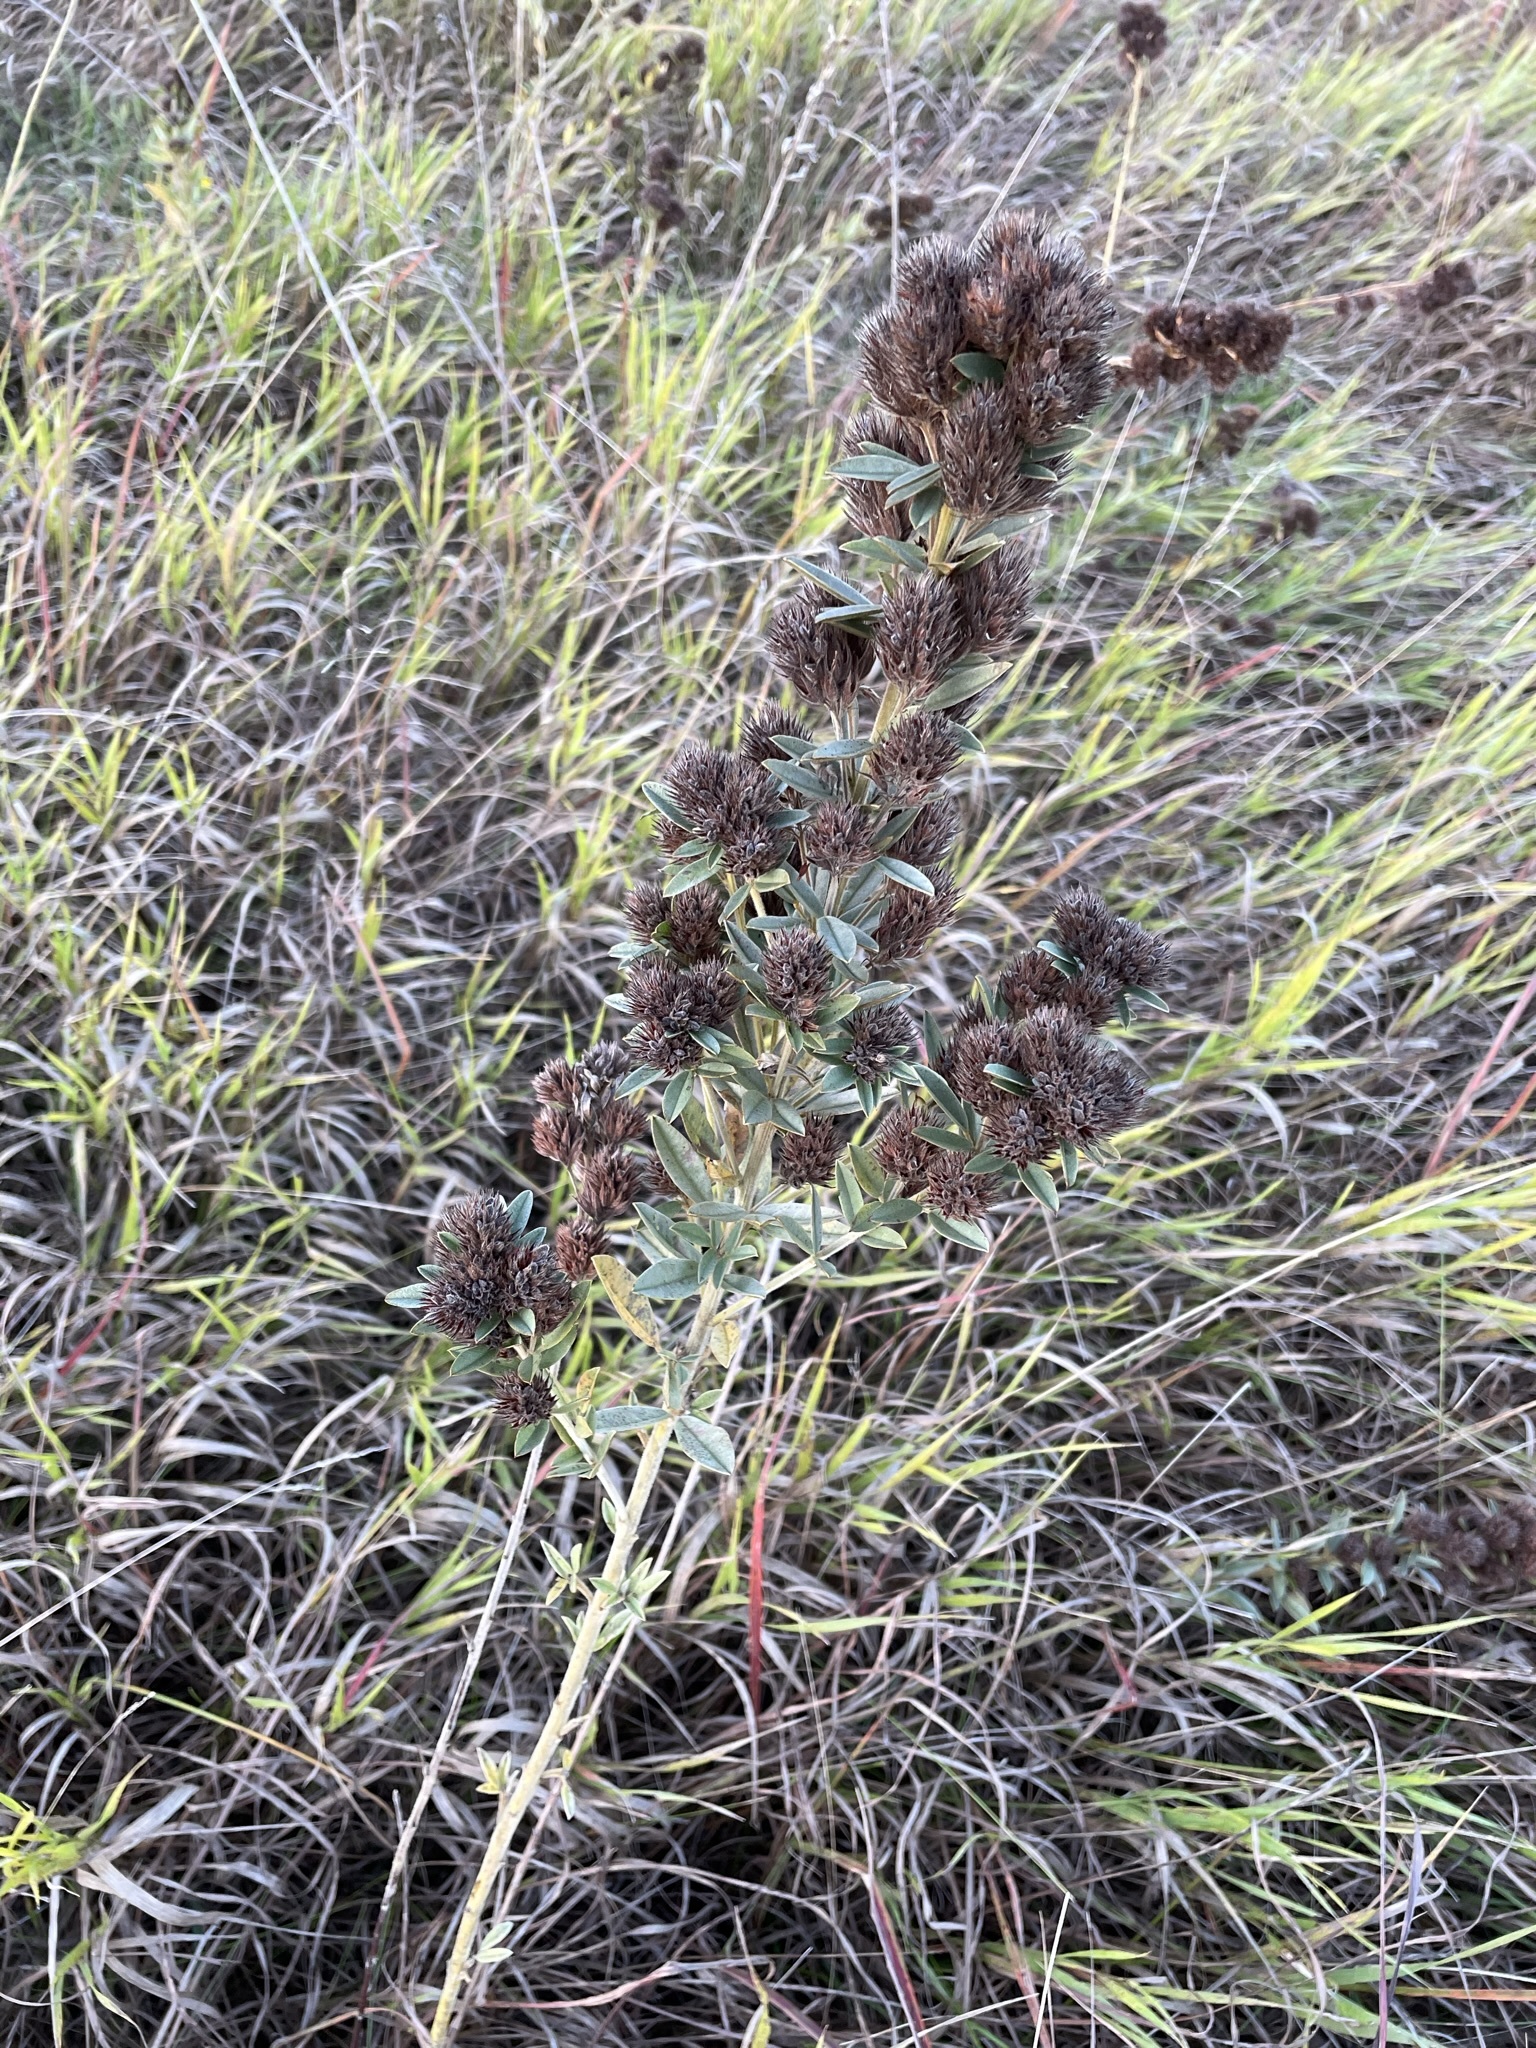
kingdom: Plantae
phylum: Tracheophyta
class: Magnoliopsida
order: Fabales
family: Fabaceae
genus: Lespedeza
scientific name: Lespedeza capitata
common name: Dusty clover
